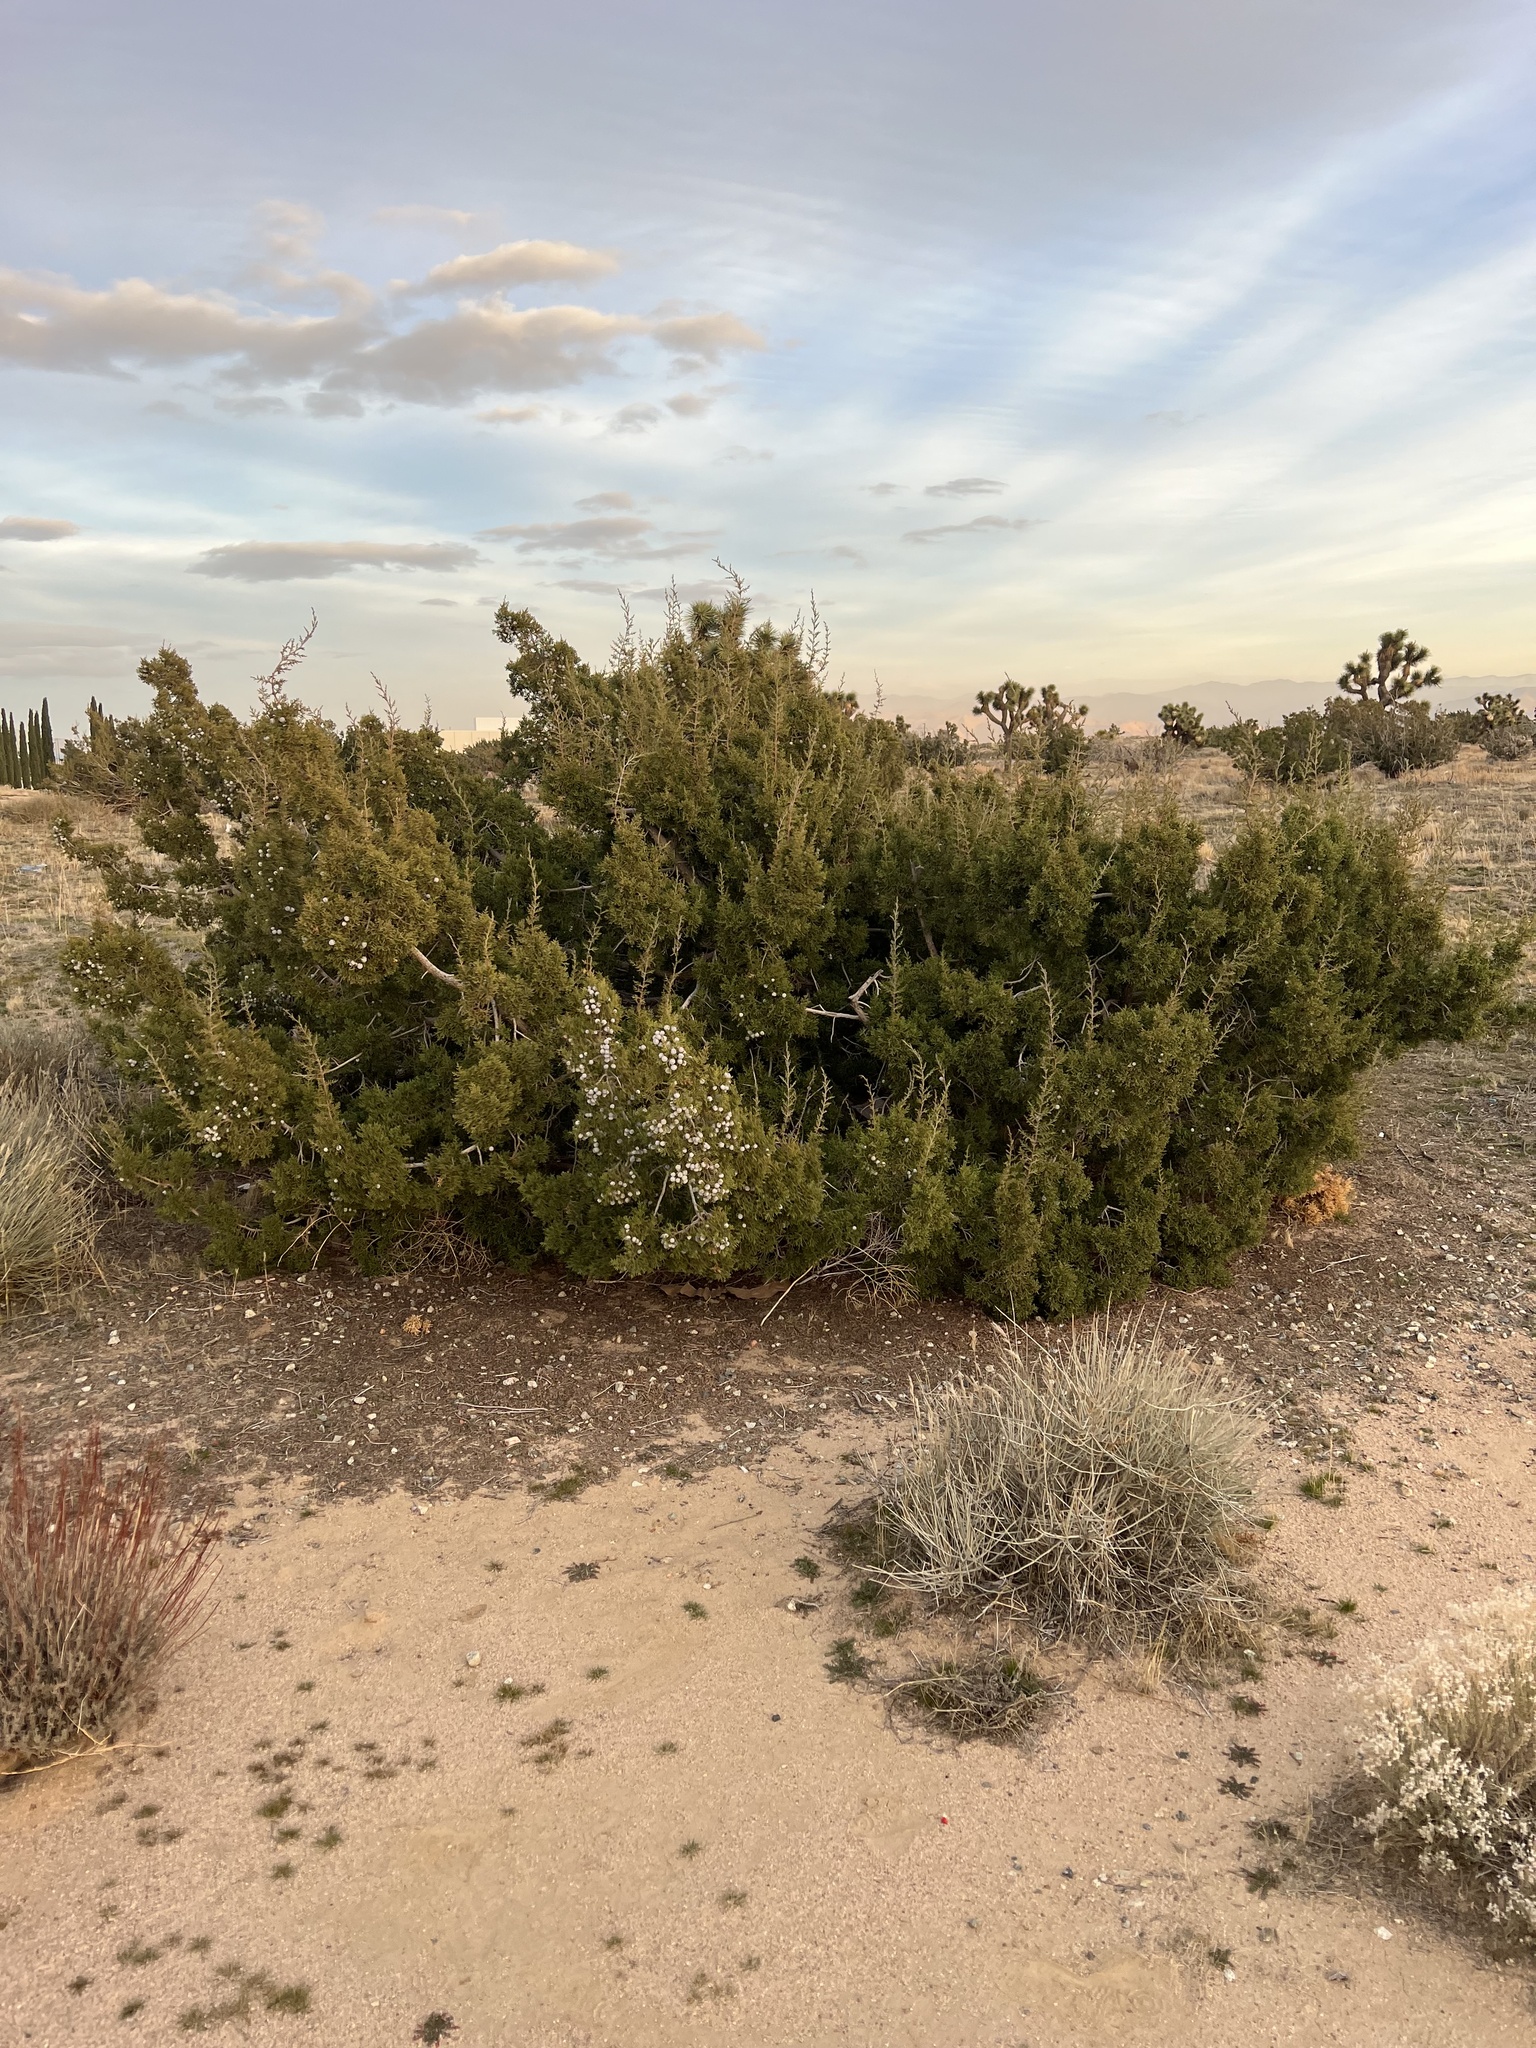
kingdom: Plantae
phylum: Tracheophyta
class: Pinopsida
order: Pinales
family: Cupressaceae
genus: Juniperus
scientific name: Juniperus californica
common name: California juniper
